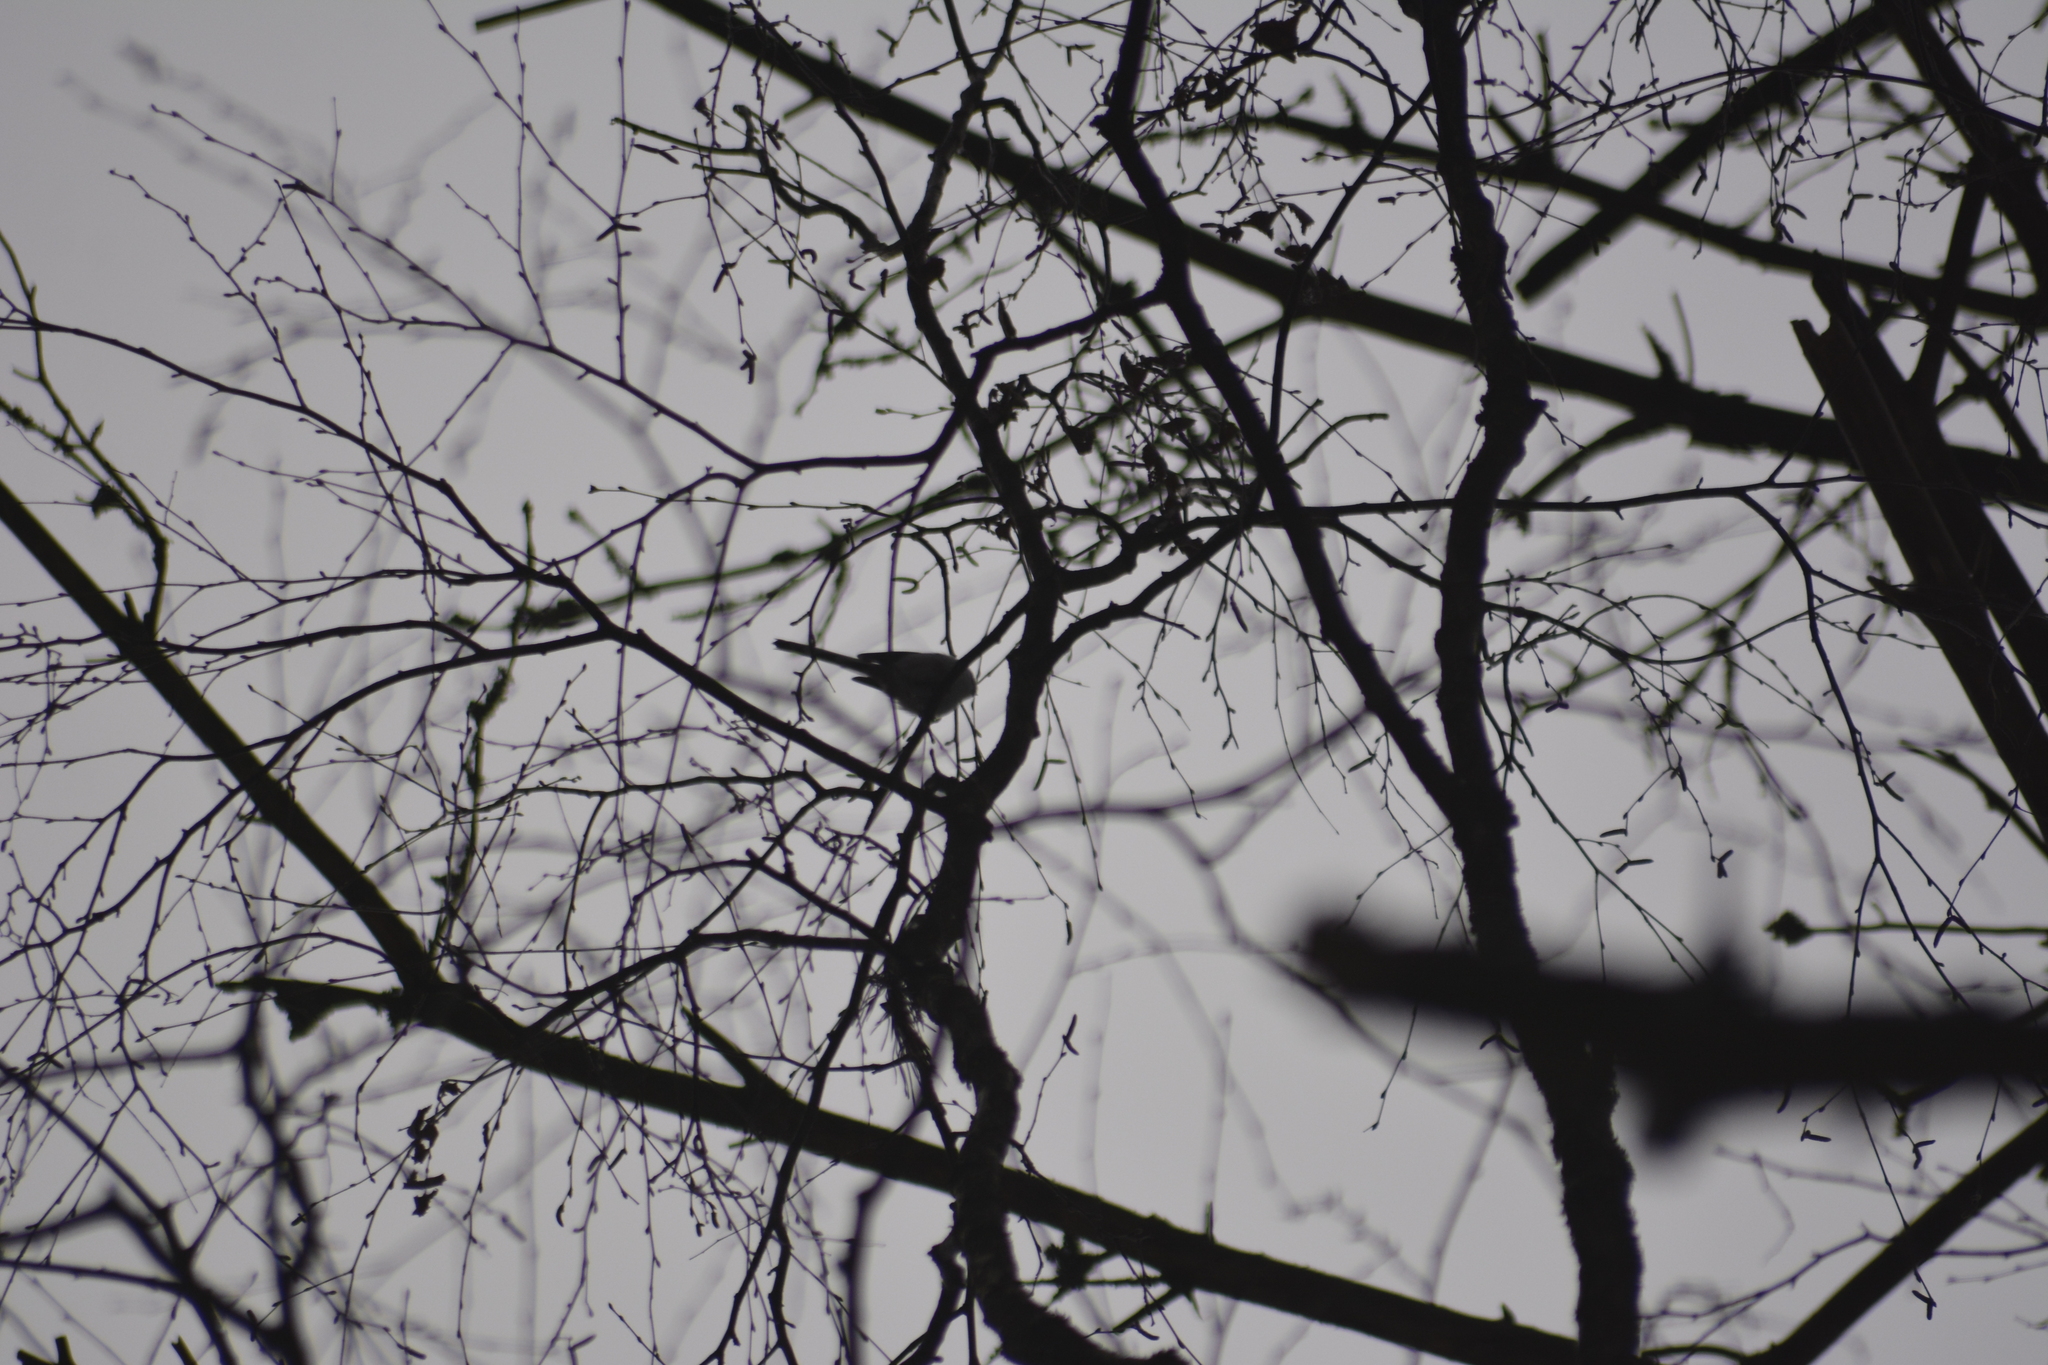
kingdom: Animalia
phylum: Chordata
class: Aves
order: Passeriformes
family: Aegithalidae
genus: Aegithalos
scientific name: Aegithalos caudatus
